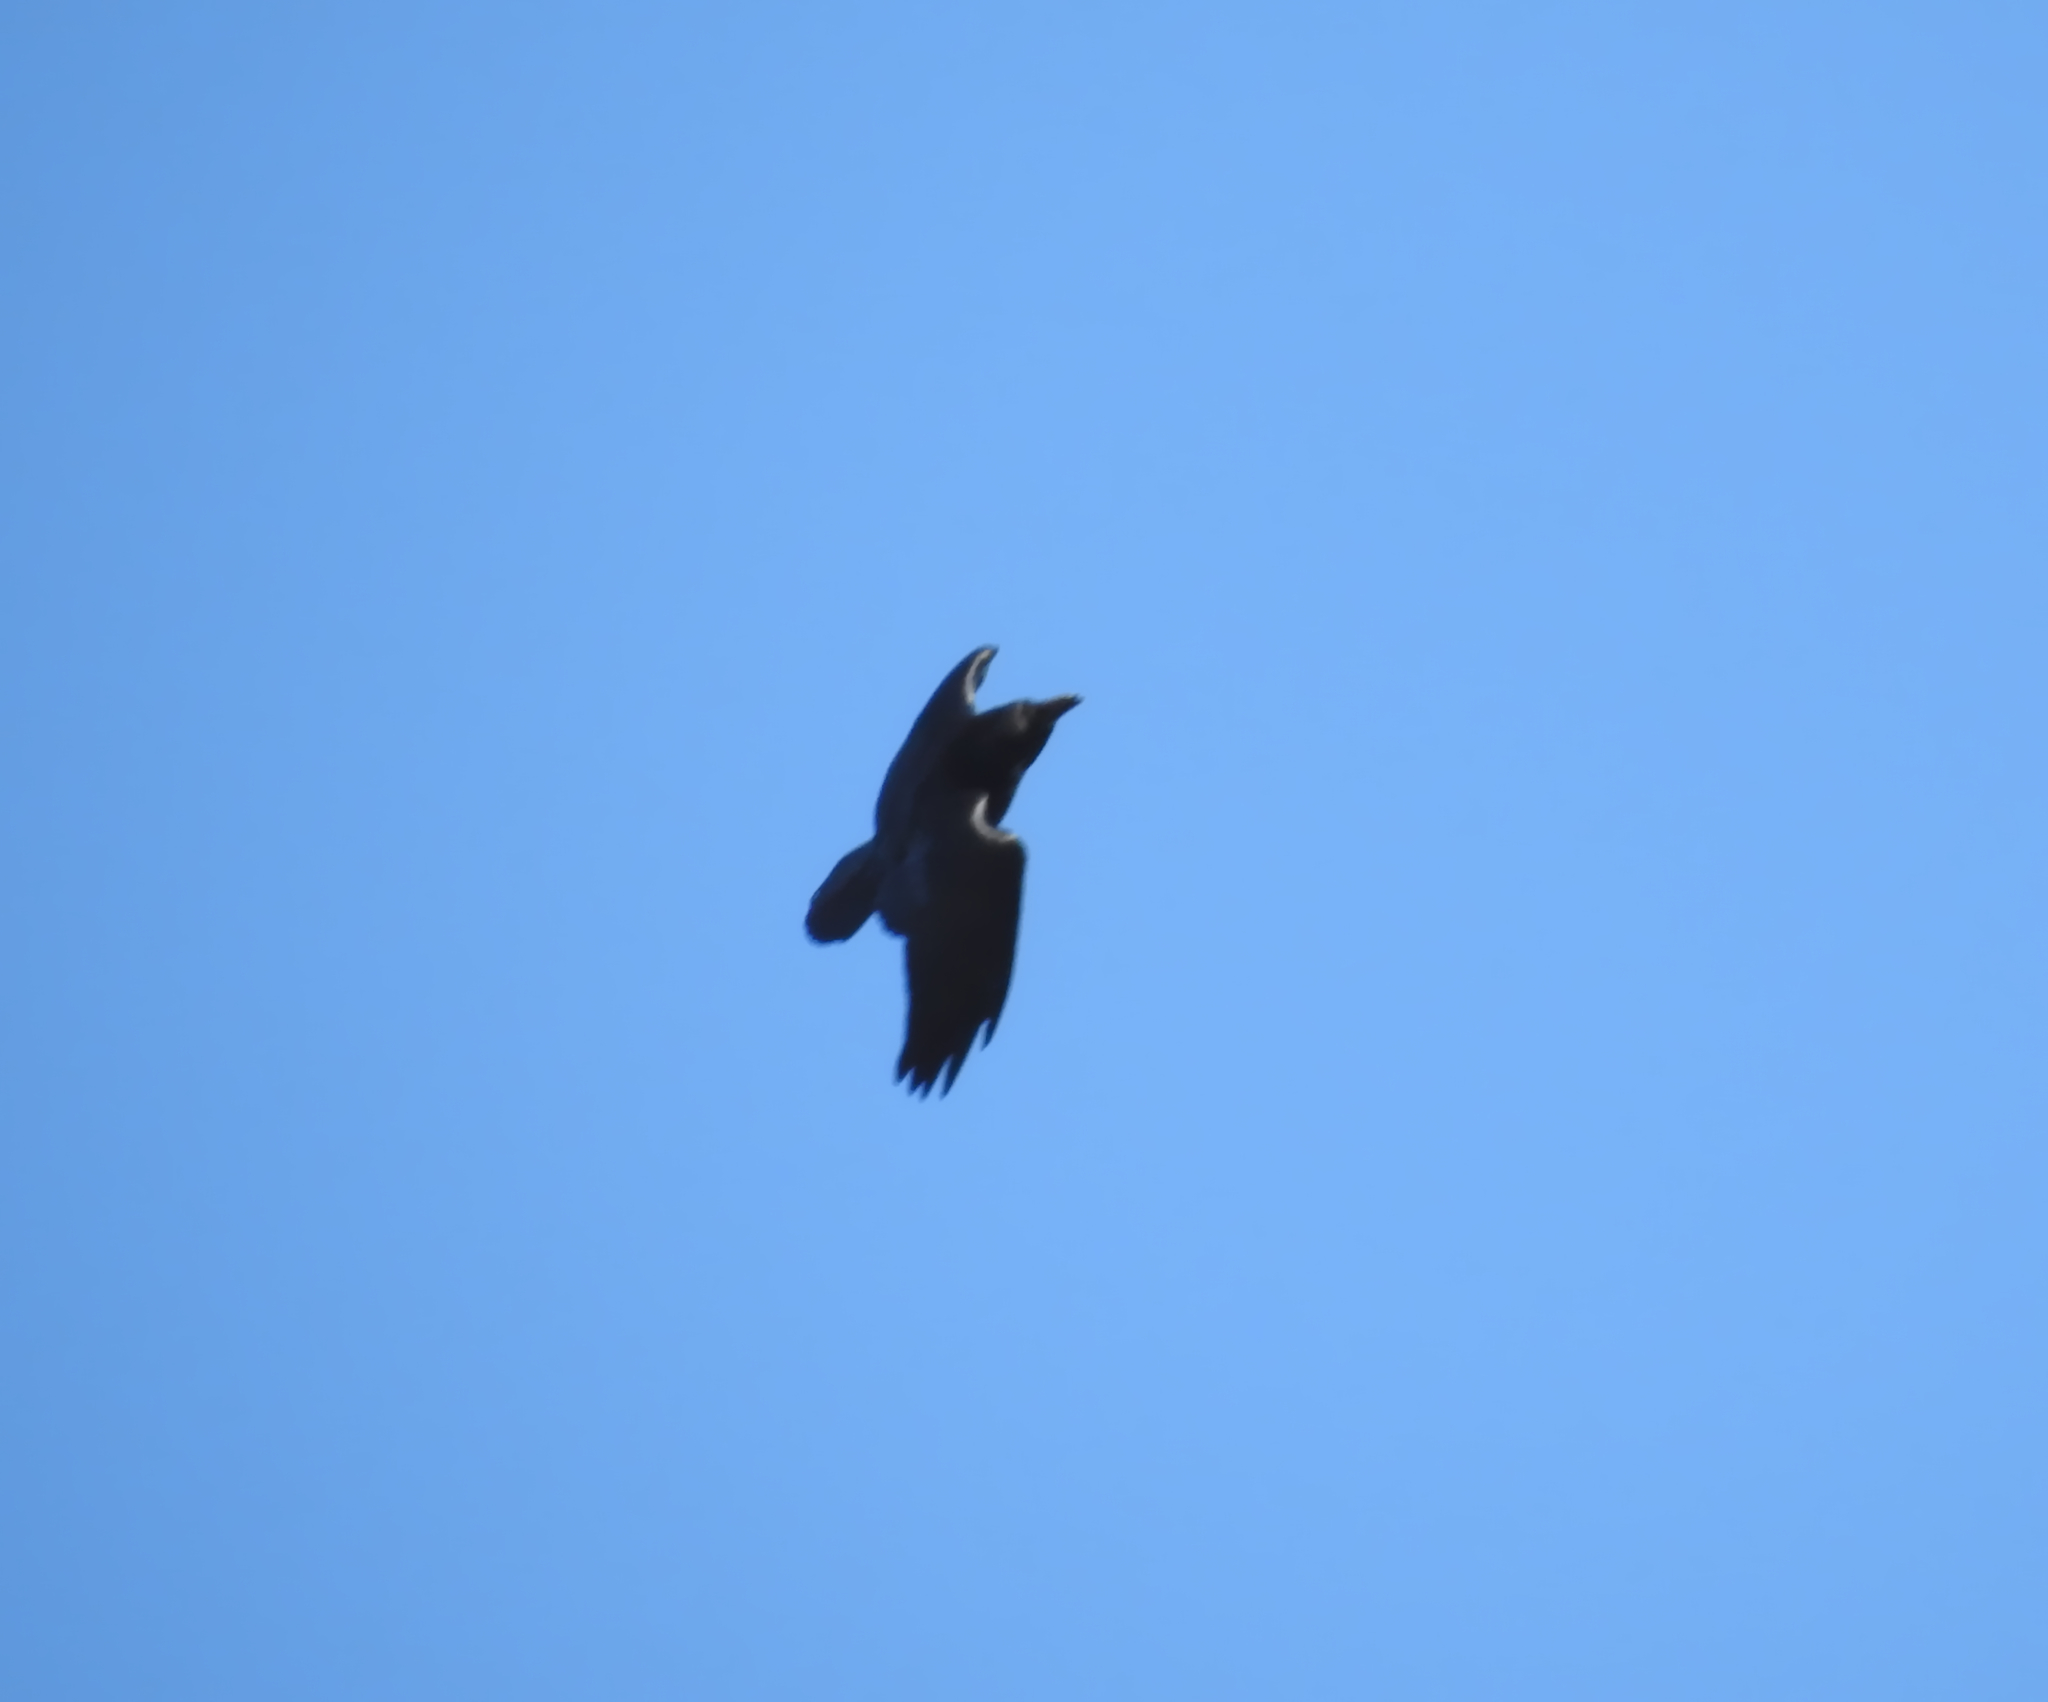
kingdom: Animalia
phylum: Chordata
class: Aves
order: Passeriformes
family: Corvidae
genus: Corvus
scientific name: Corvus corax
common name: Common raven
